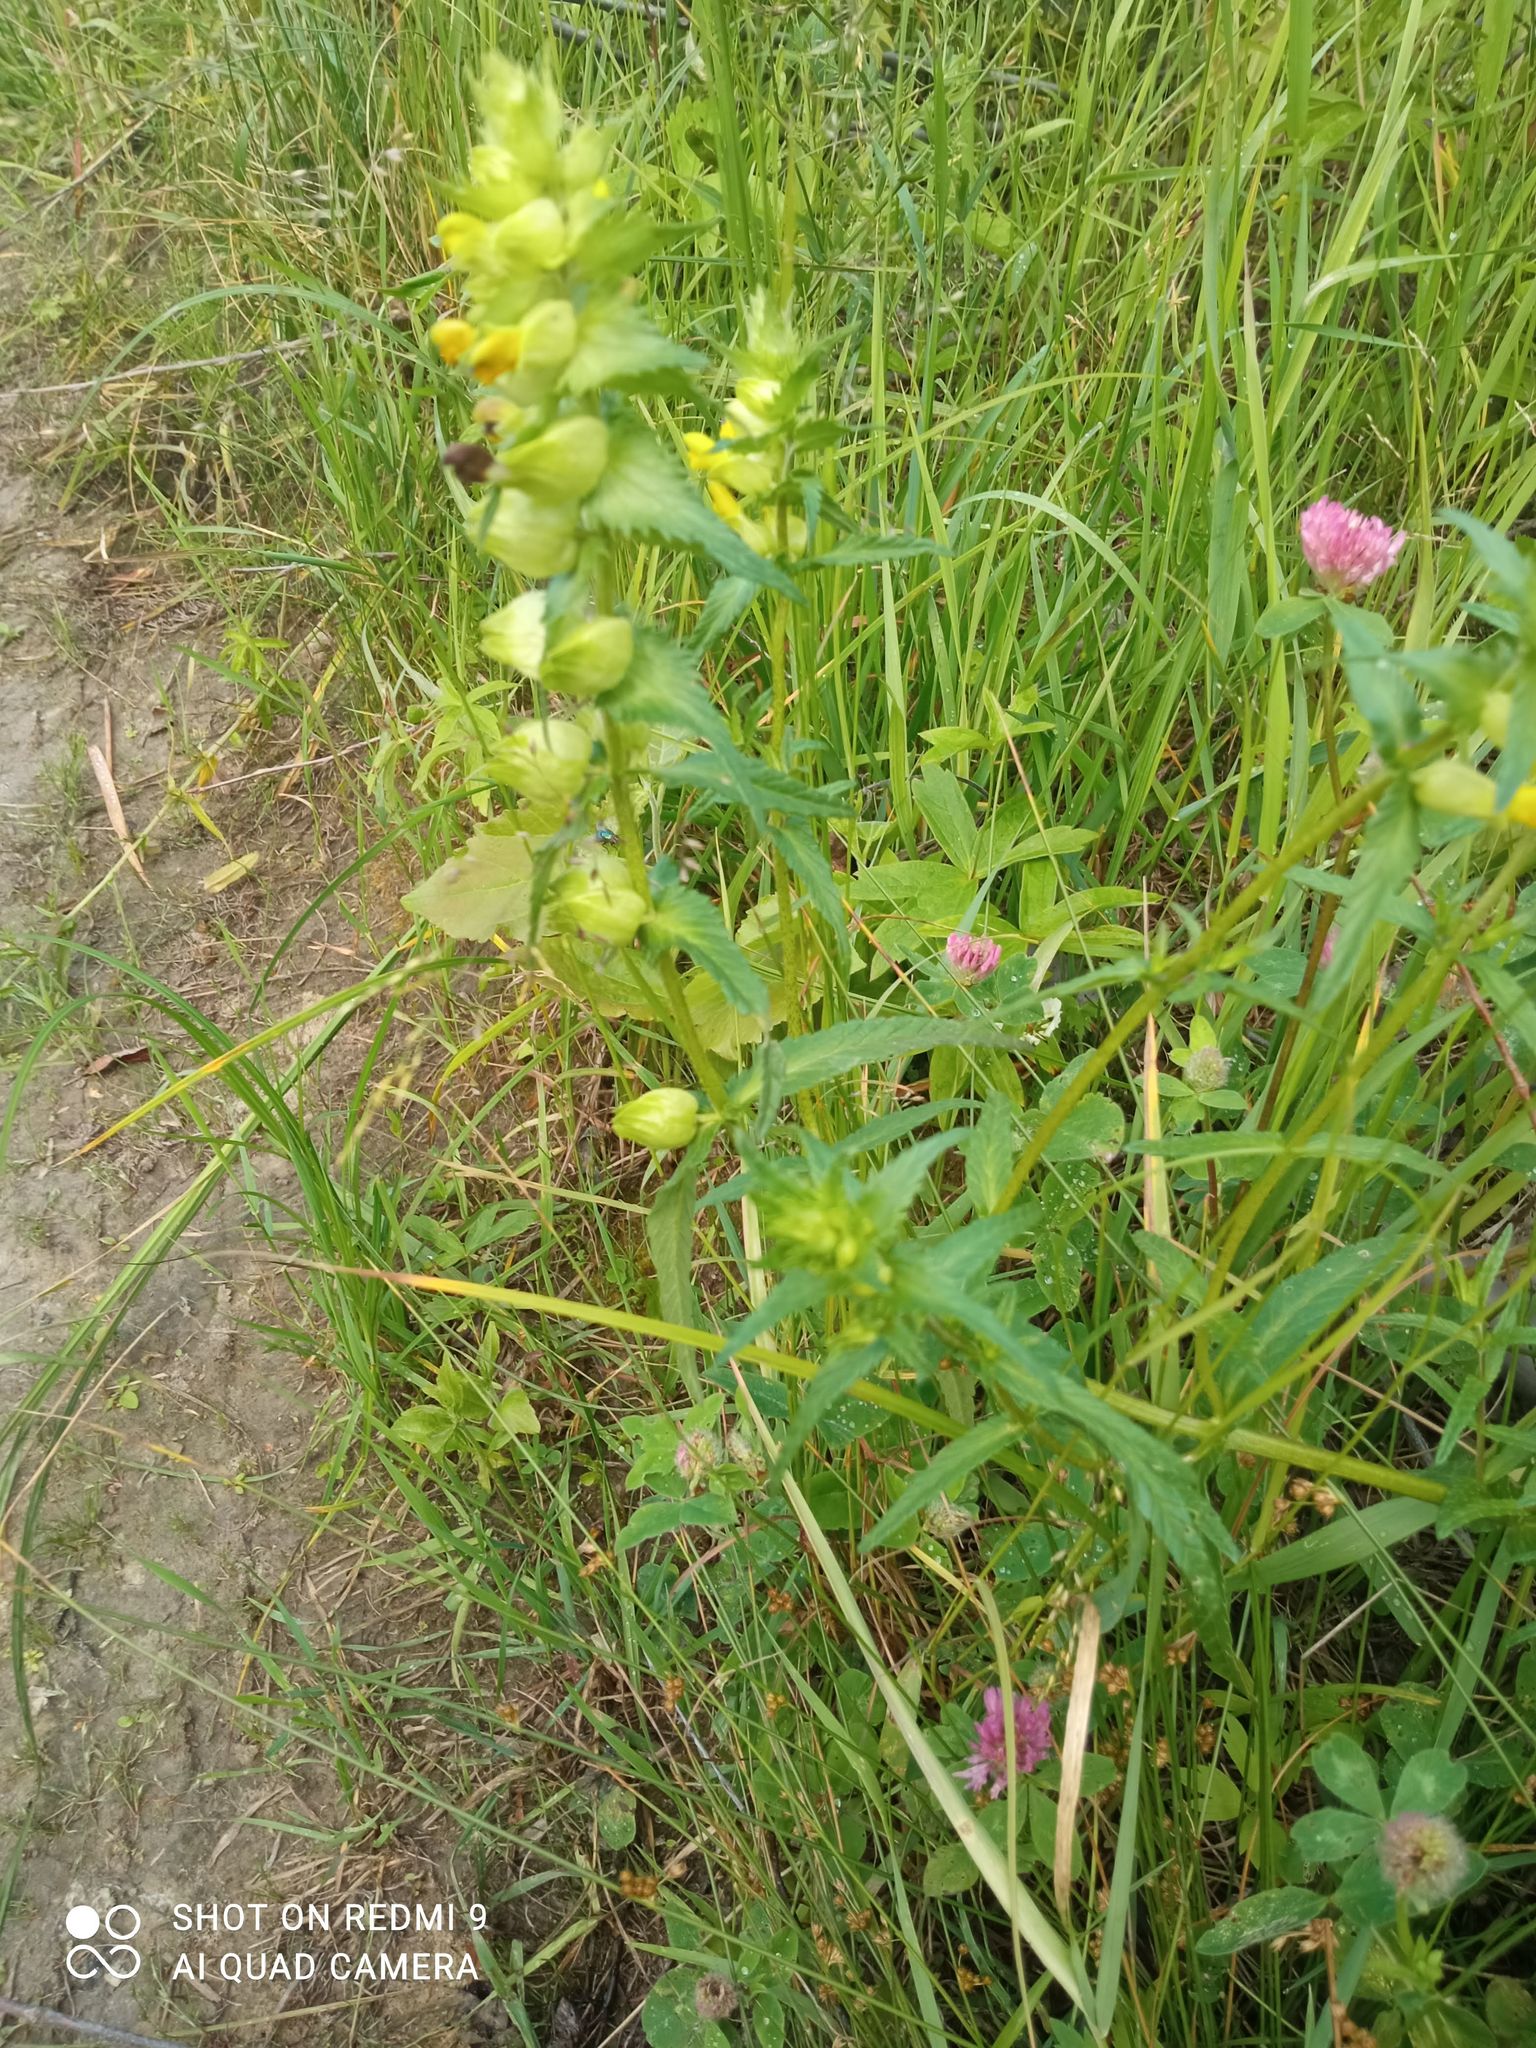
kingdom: Plantae
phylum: Tracheophyta
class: Magnoliopsida
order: Lamiales
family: Orobanchaceae
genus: Rhinanthus
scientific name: Rhinanthus serotinus
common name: Late-flowering yellow rattle
